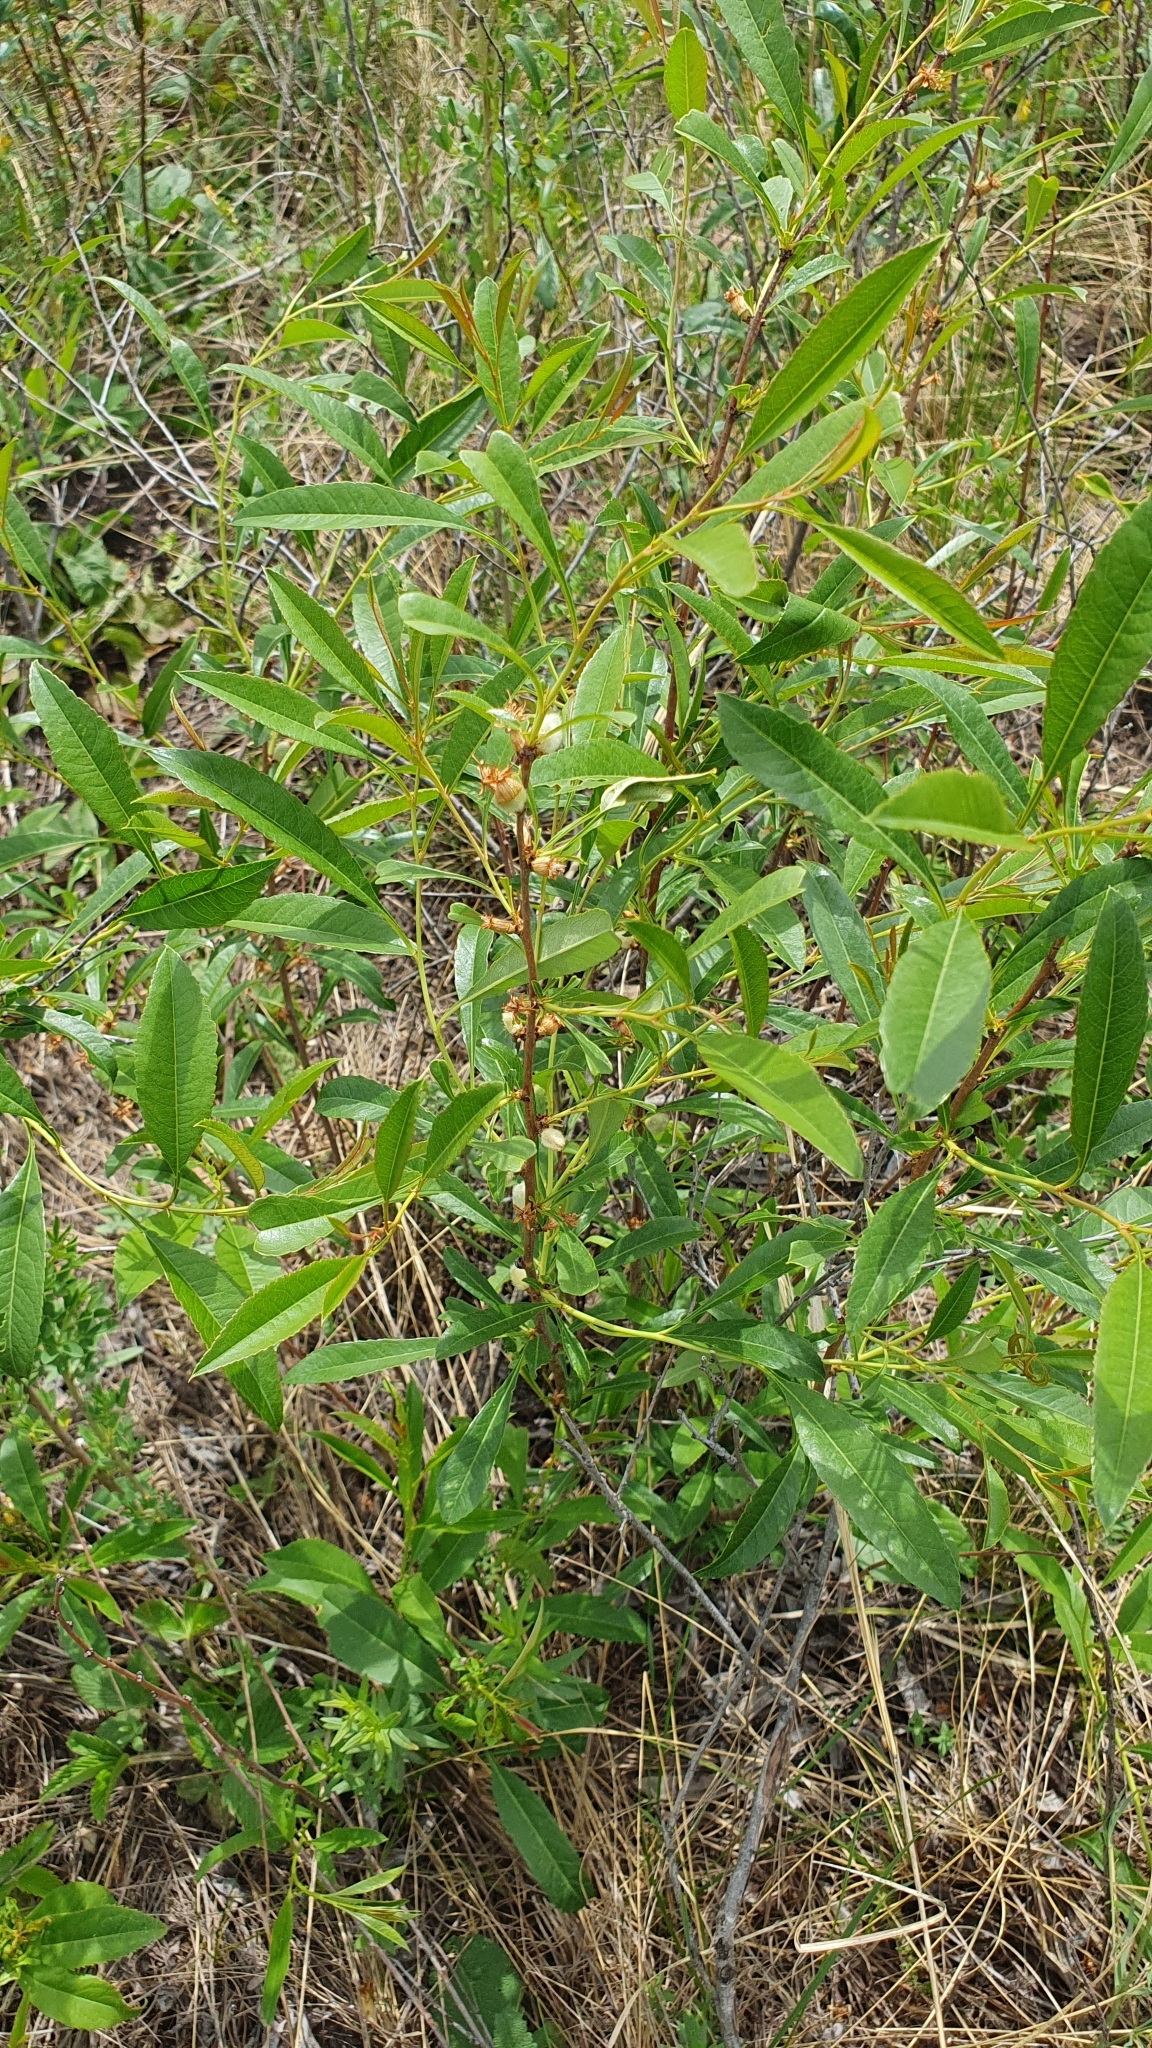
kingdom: Plantae
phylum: Tracheophyta
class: Magnoliopsida
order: Rosales
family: Rosaceae
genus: Prunus
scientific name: Prunus tenella
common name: Dwarf russian almond
